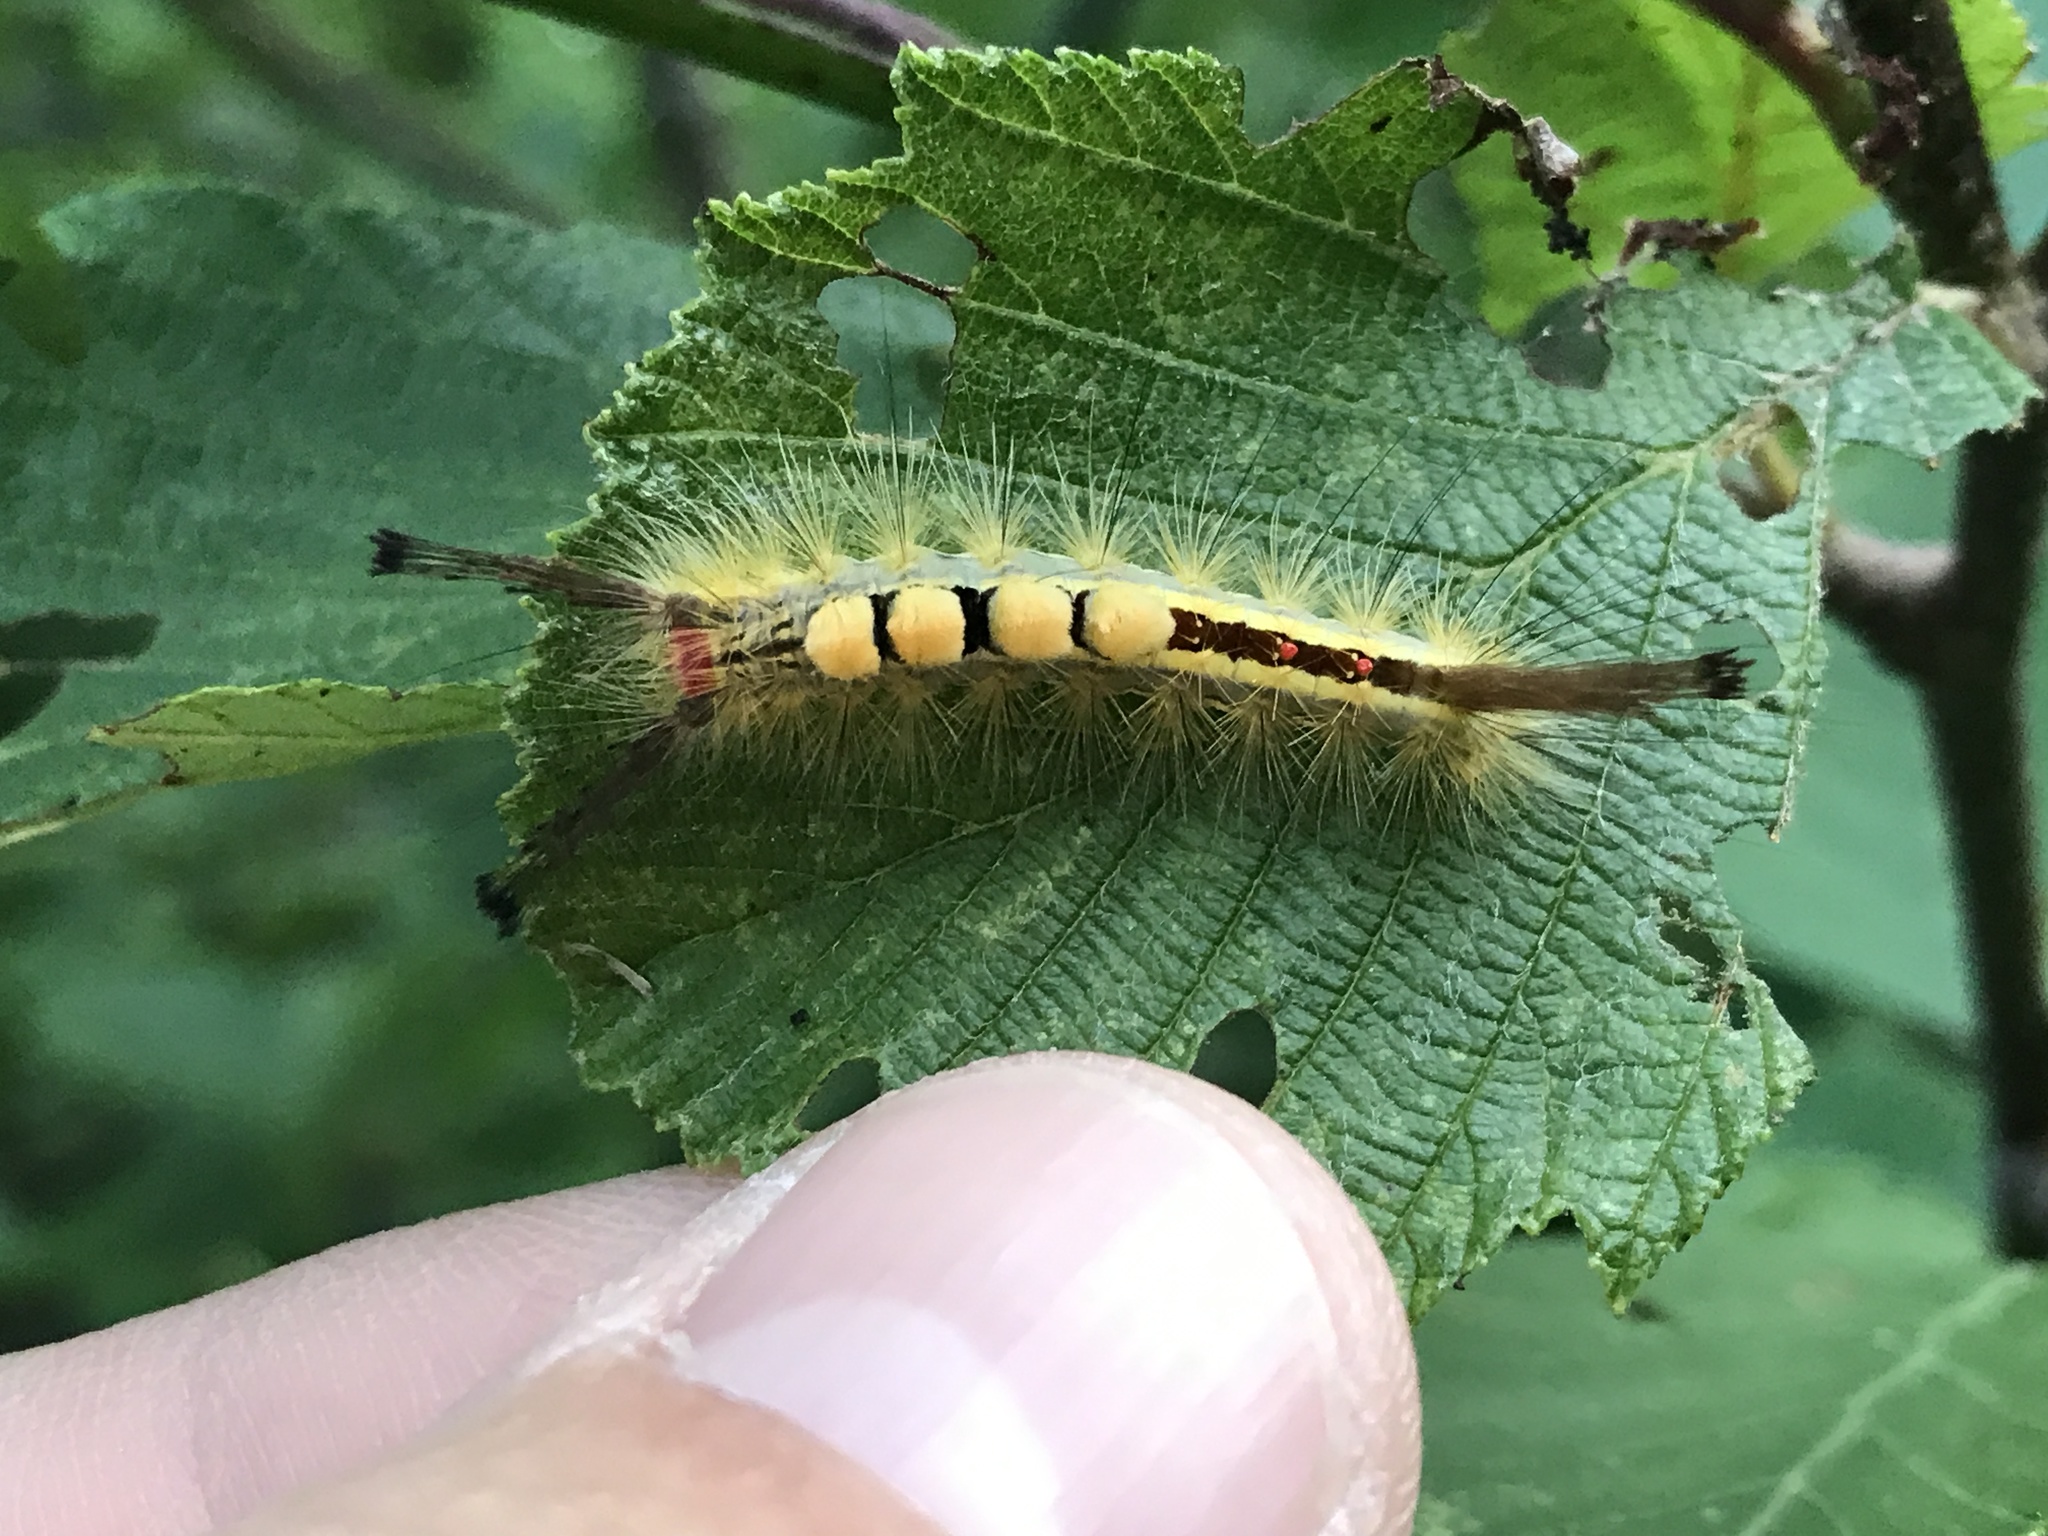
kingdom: Animalia
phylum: Arthropoda
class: Insecta
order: Lepidoptera
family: Erebidae
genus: Orgyia
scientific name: Orgyia leucostigma
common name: White-marked tussock moth
